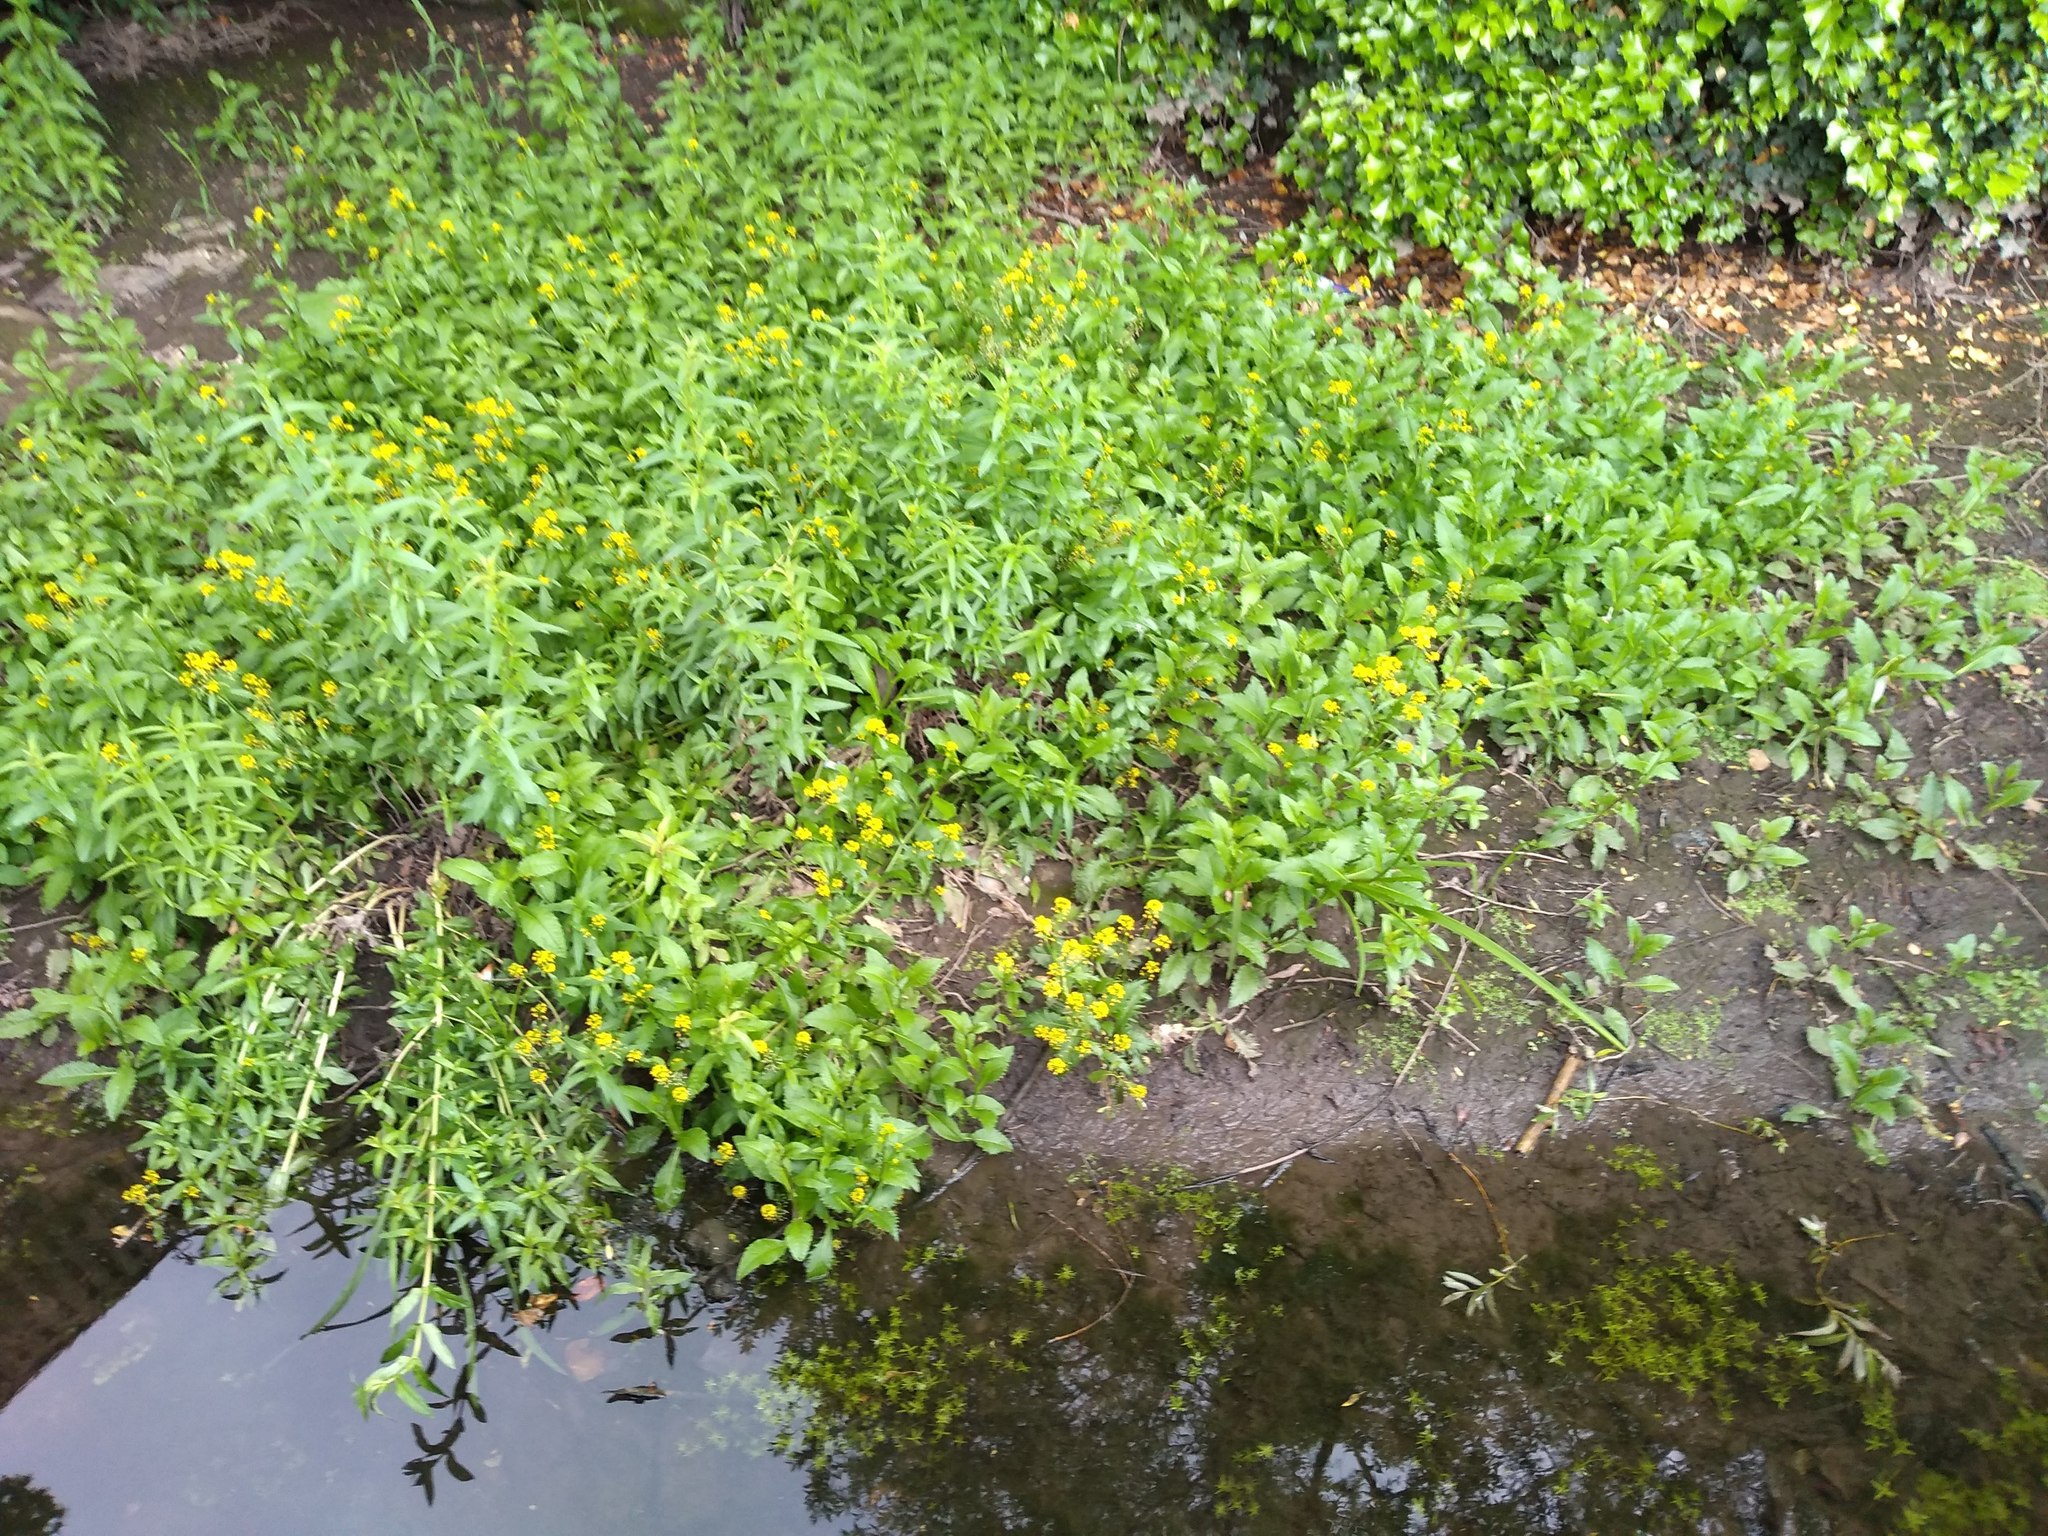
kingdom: Plantae
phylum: Tracheophyta
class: Magnoliopsida
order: Brassicales
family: Brassicaceae
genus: Rorippa
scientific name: Rorippa amphibia
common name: Great yellow-cress
